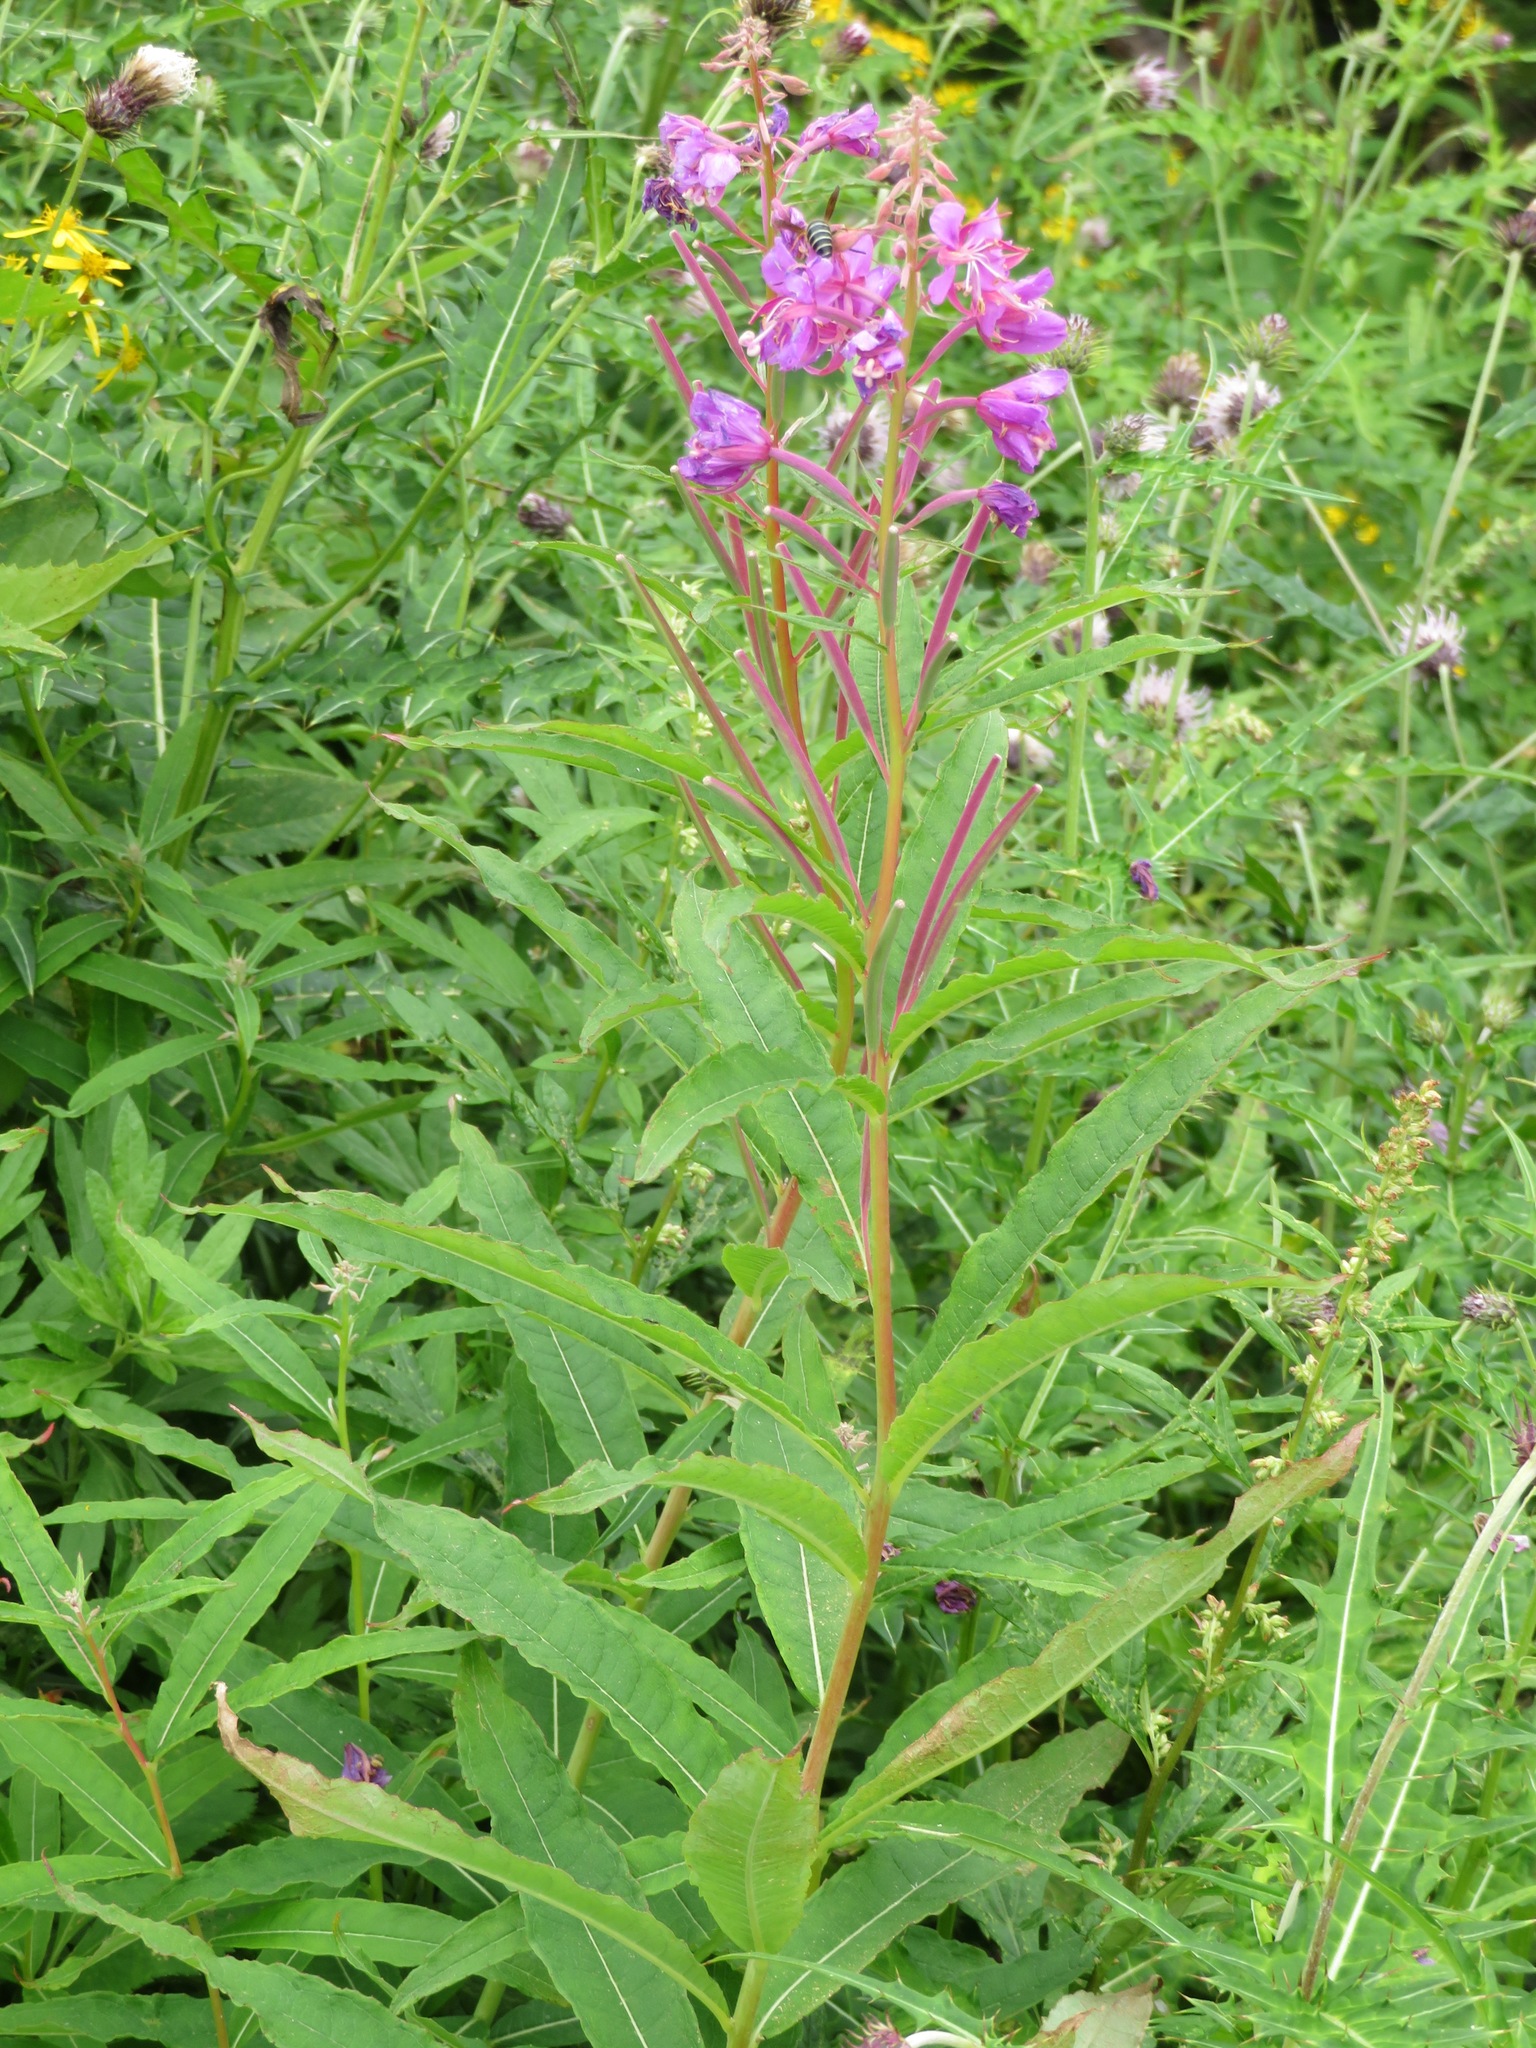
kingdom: Plantae
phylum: Tracheophyta
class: Magnoliopsida
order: Myrtales
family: Onagraceae
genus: Chamaenerion
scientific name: Chamaenerion angustifolium
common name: Fireweed
